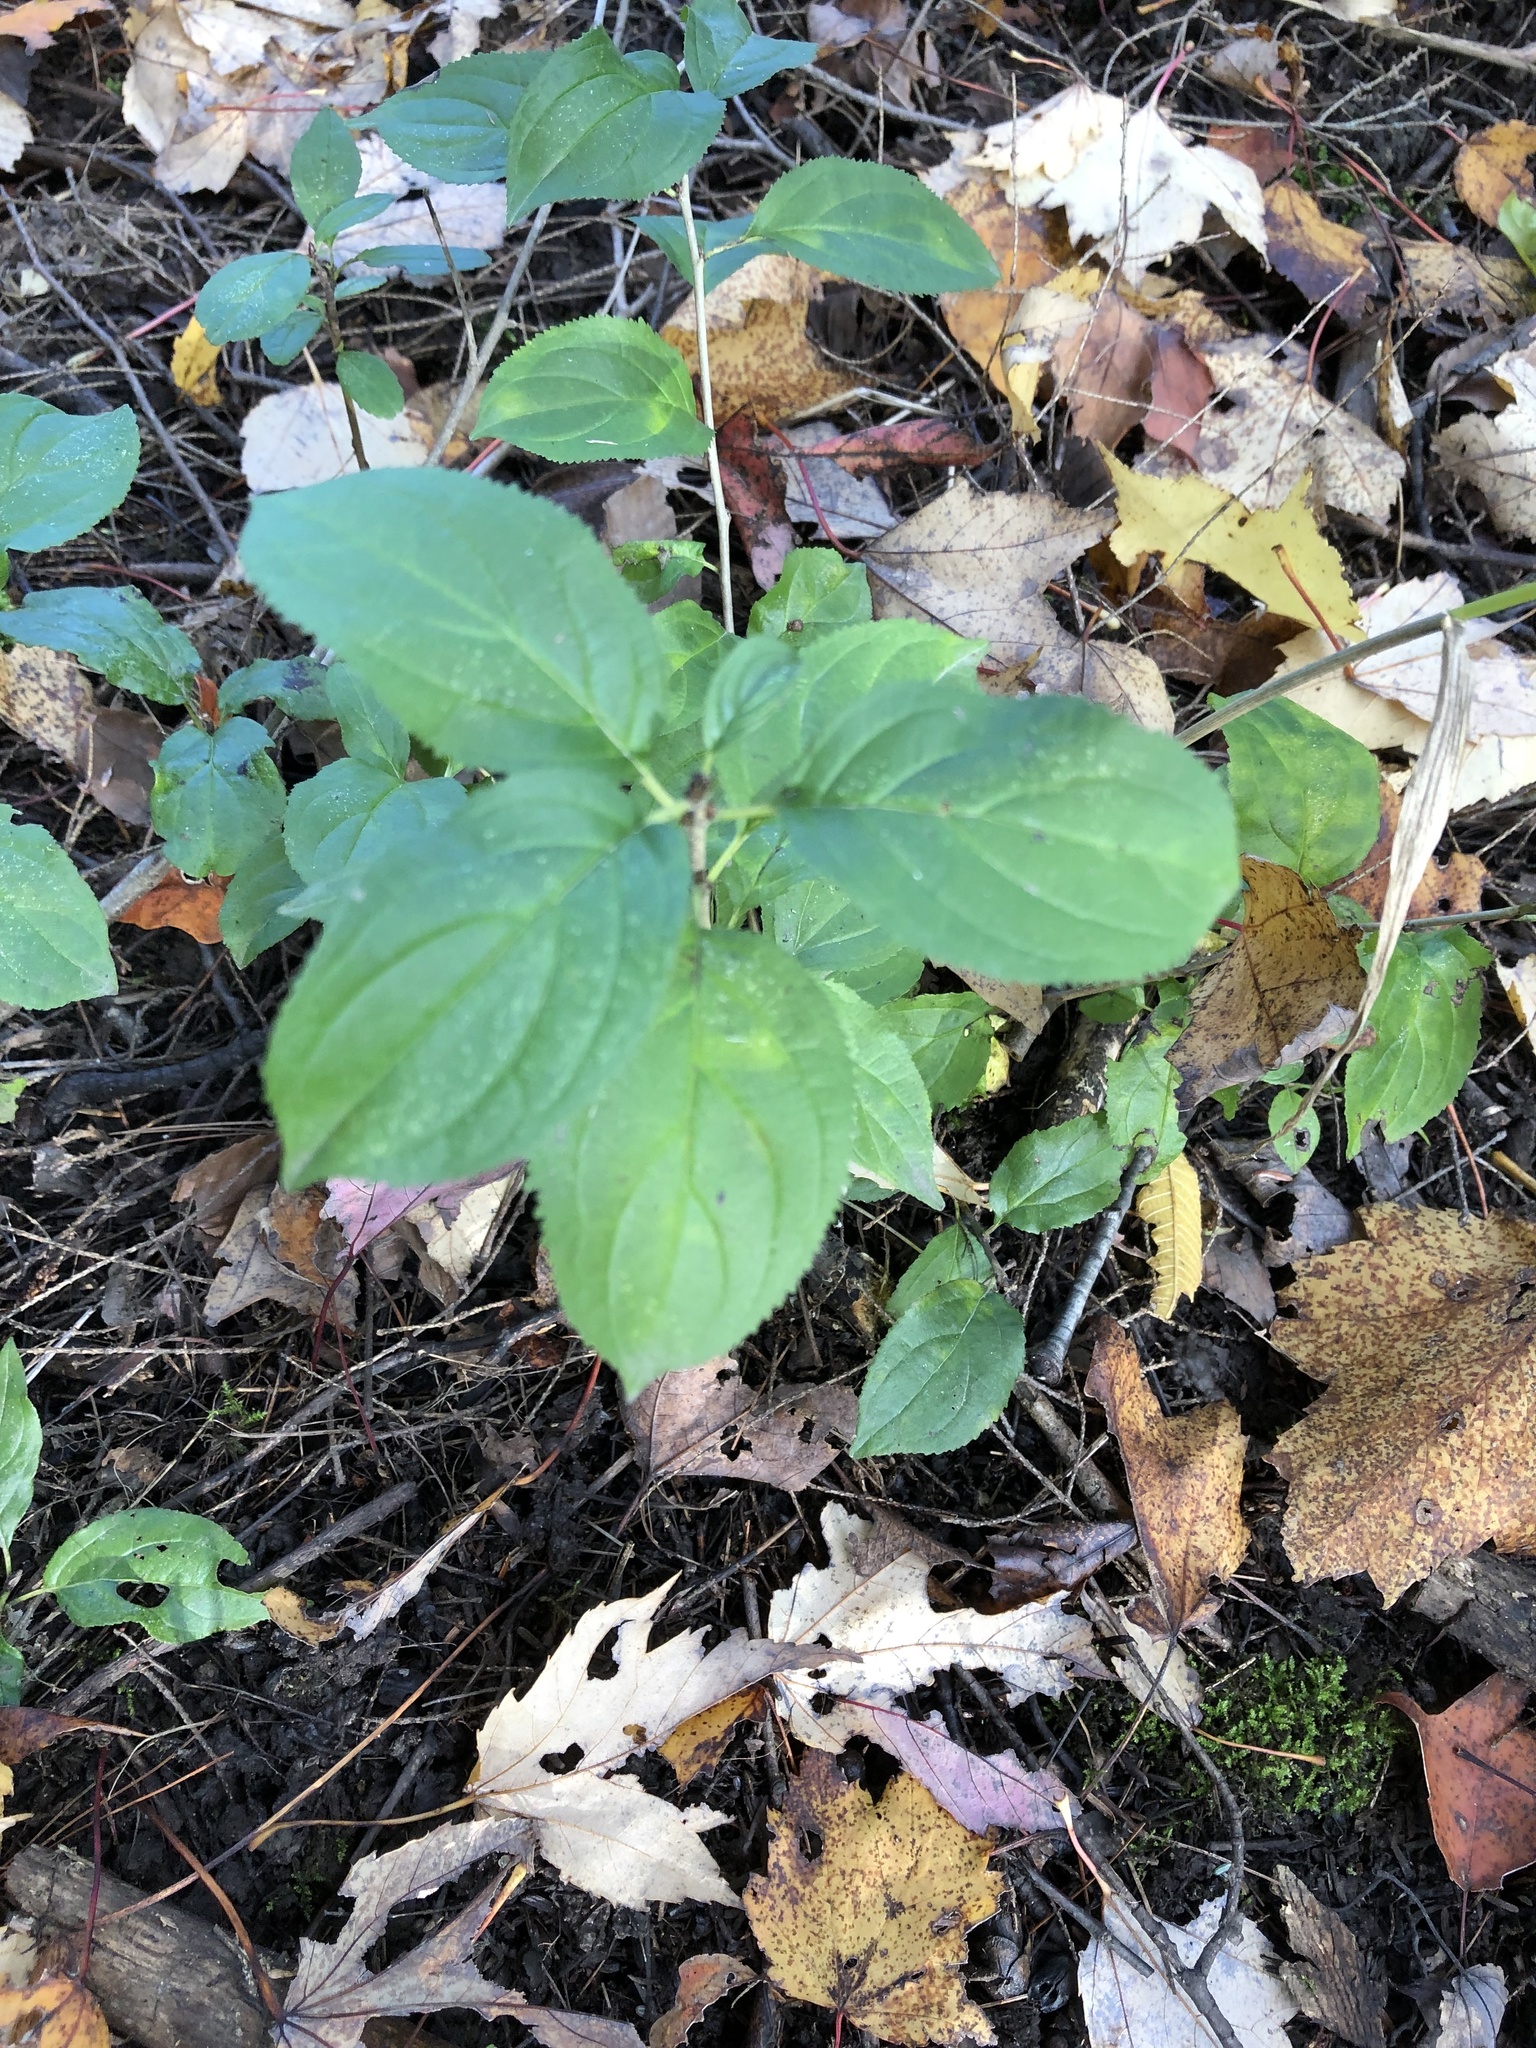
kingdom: Plantae
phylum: Tracheophyta
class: Magnoliopsida
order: Rosales
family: Rhamnaceae
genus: Rhamnus
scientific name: Rhamnus cathartica
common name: Common buckthorn
